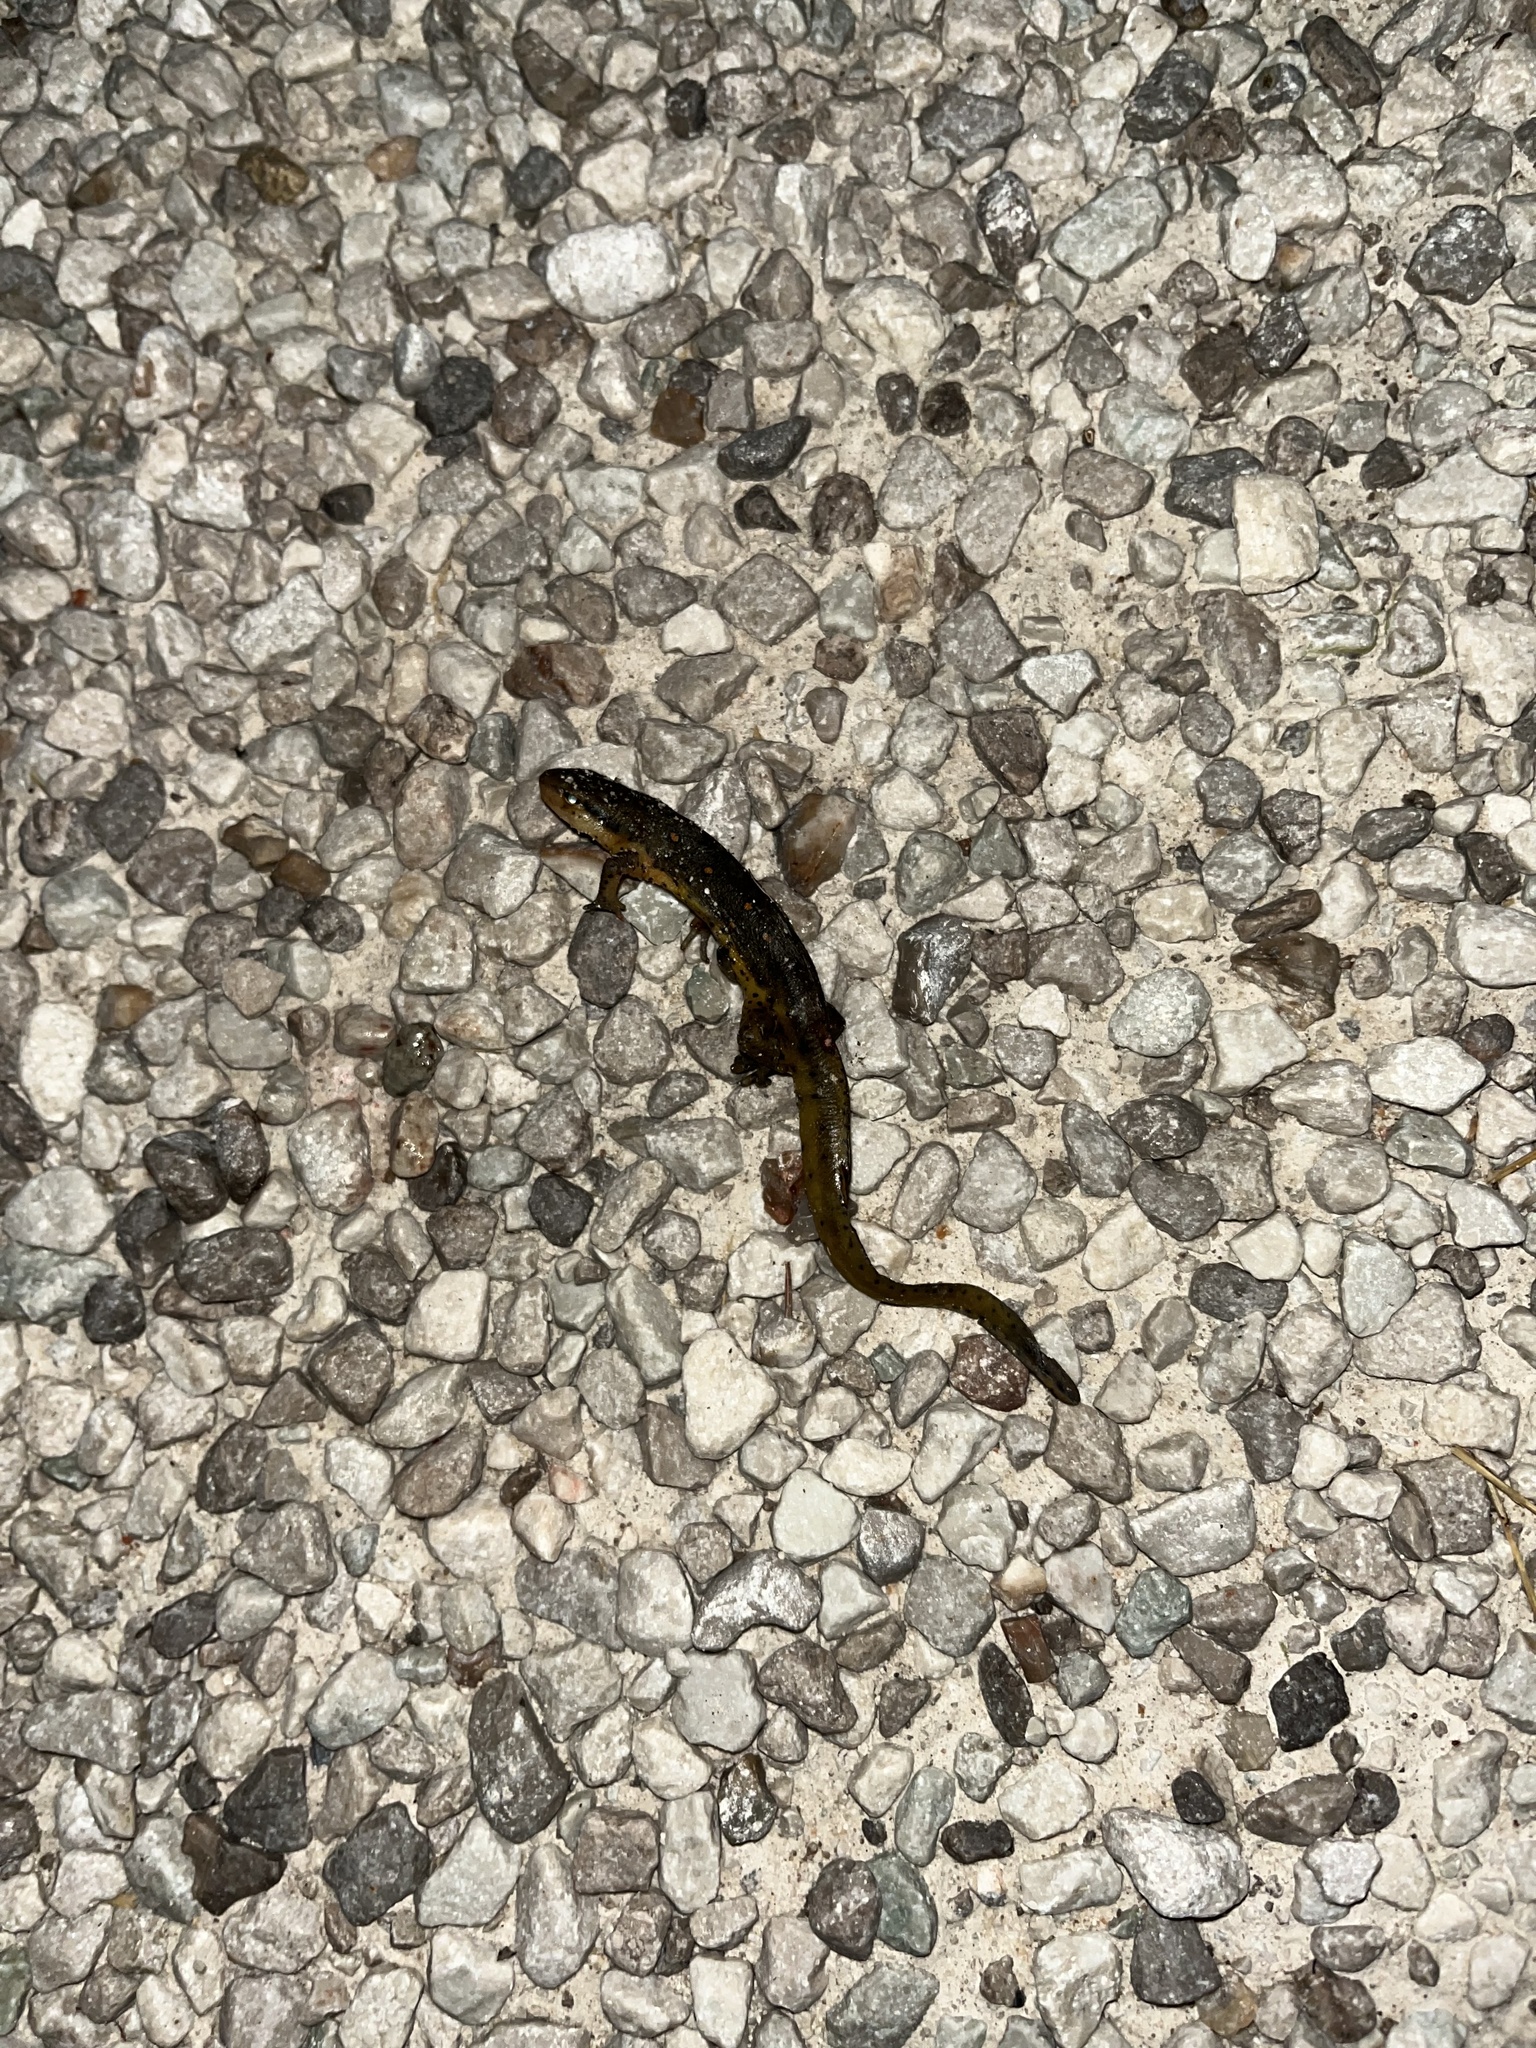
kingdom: Animalia
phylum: Chordata
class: Amphibia
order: Caudata
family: Salamandridae
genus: Notophthalmus
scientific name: Notophthalmus viridescens
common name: Eastern newt
